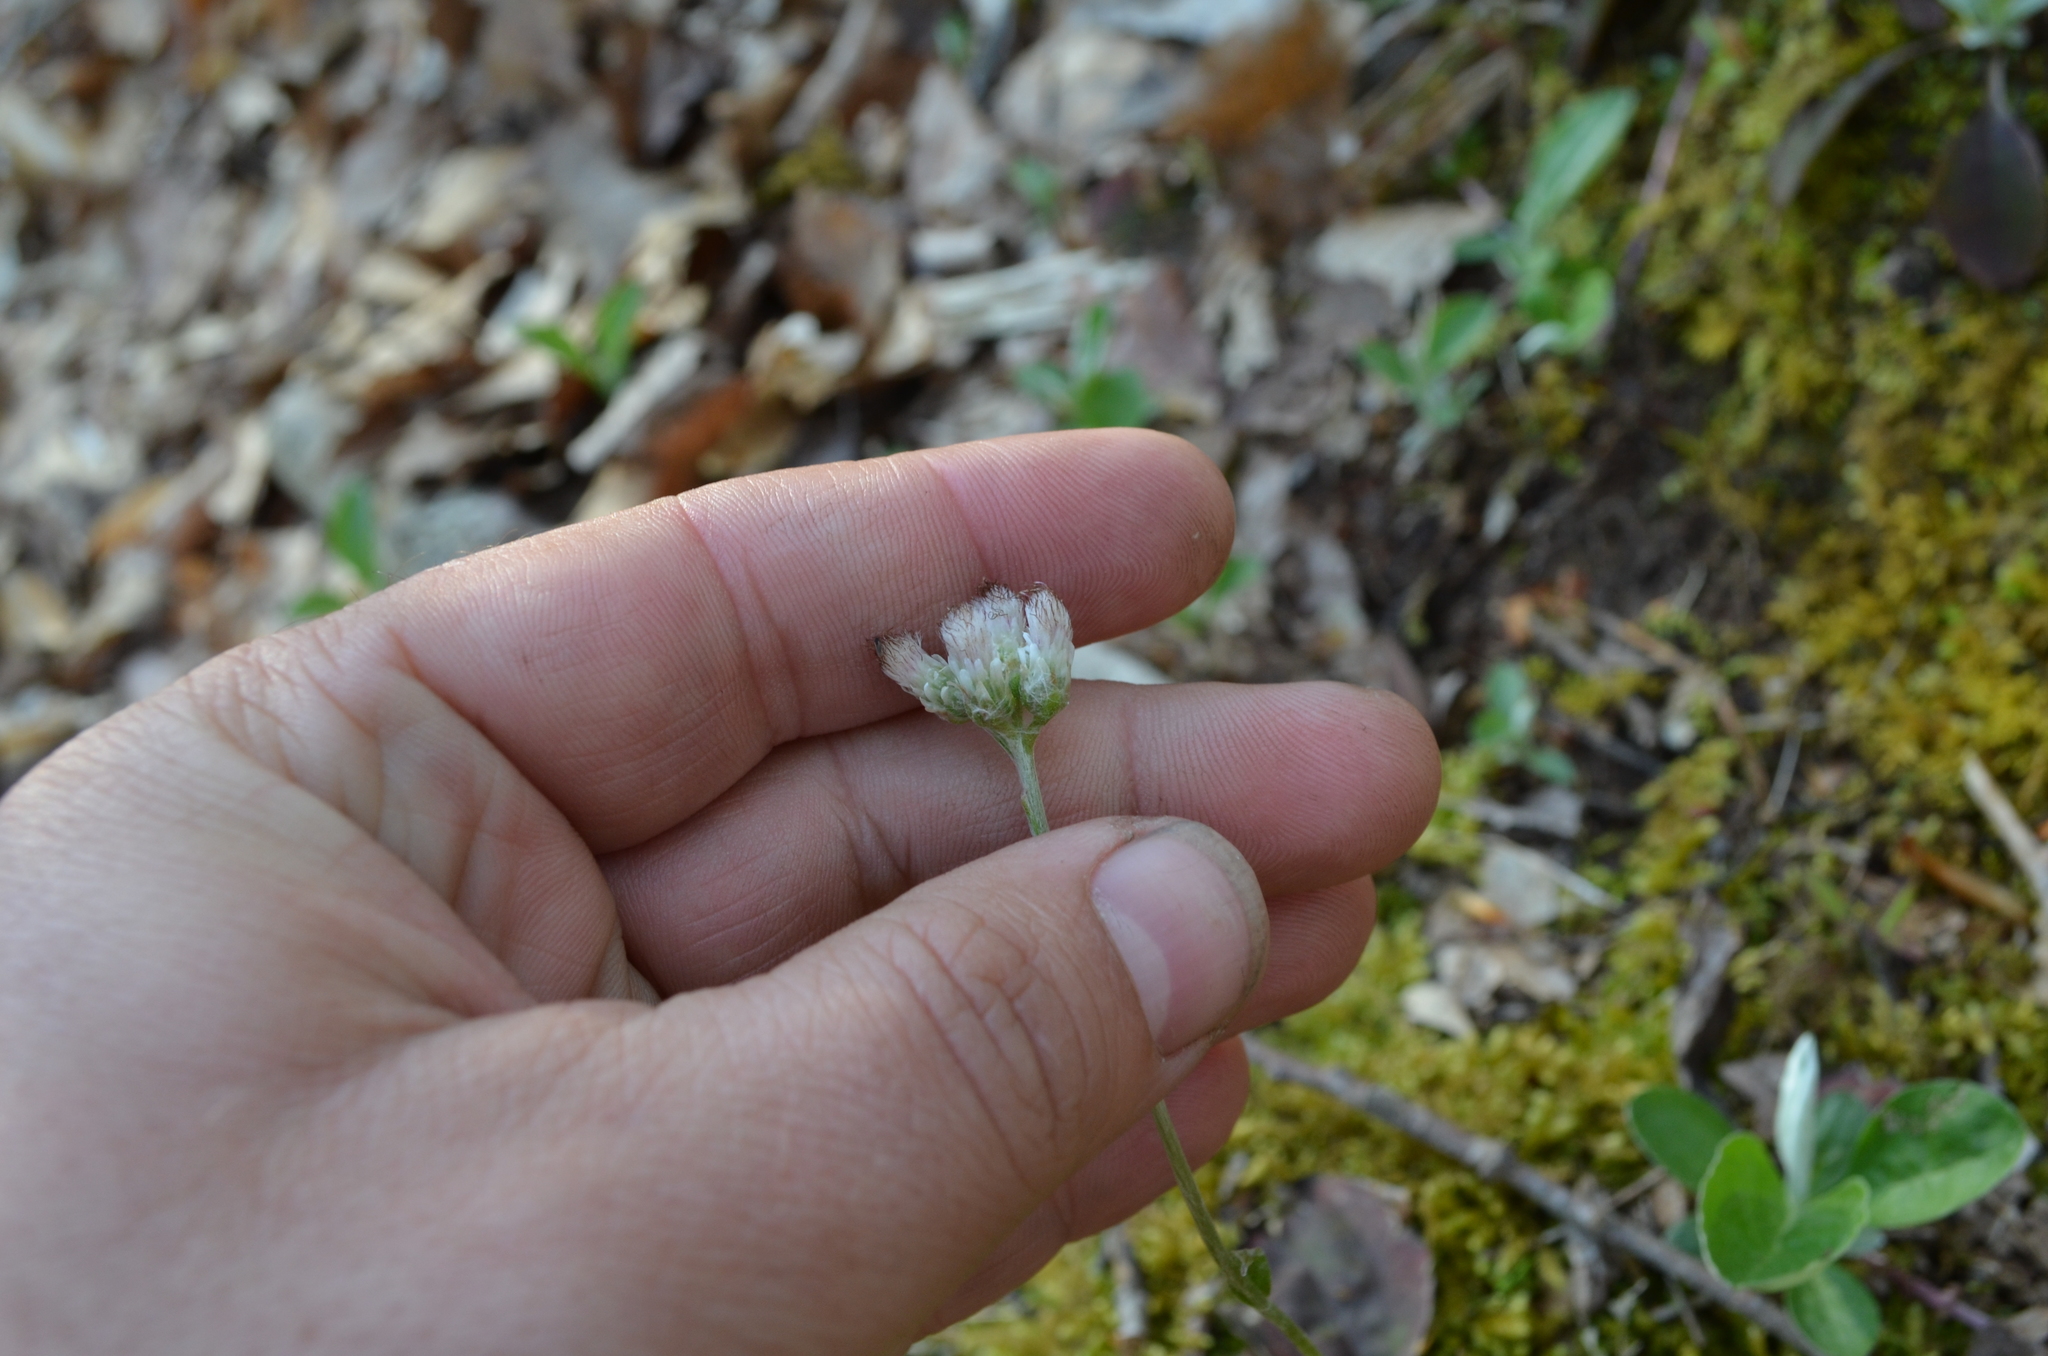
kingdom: Plantae
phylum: Tracheophyta
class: Magnoliopsida
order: Asterales
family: Asteraceae
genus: Antennaria
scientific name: Antennaria parlinii
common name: Parlin's pussytoes
